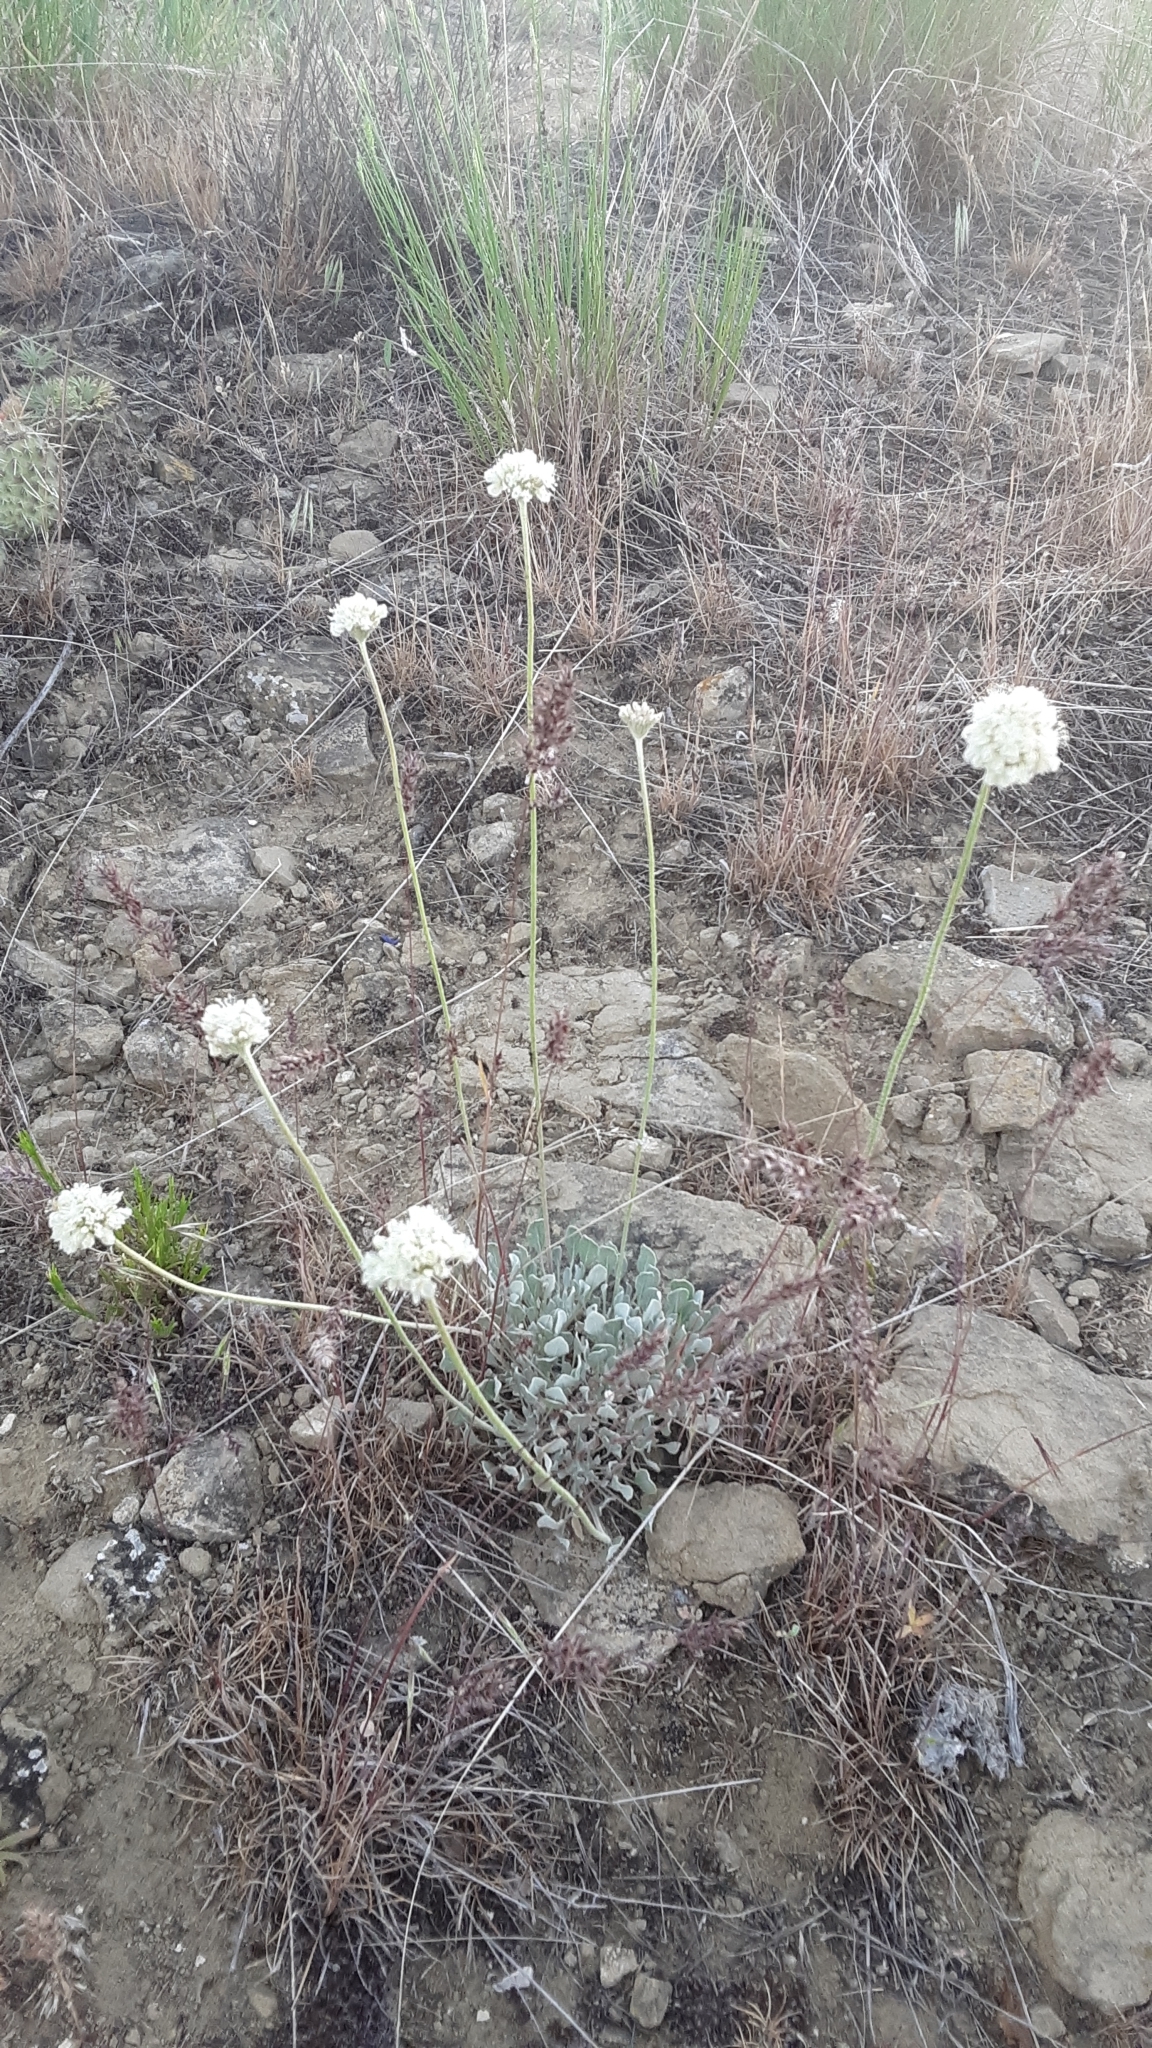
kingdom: Plantae
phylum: Tracheophyta
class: Magnoliopsida
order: Caryophyllales
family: Polygonaceae
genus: Eriogonum
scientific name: Eriogonum ovalifolium
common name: Cushion buckwheat
